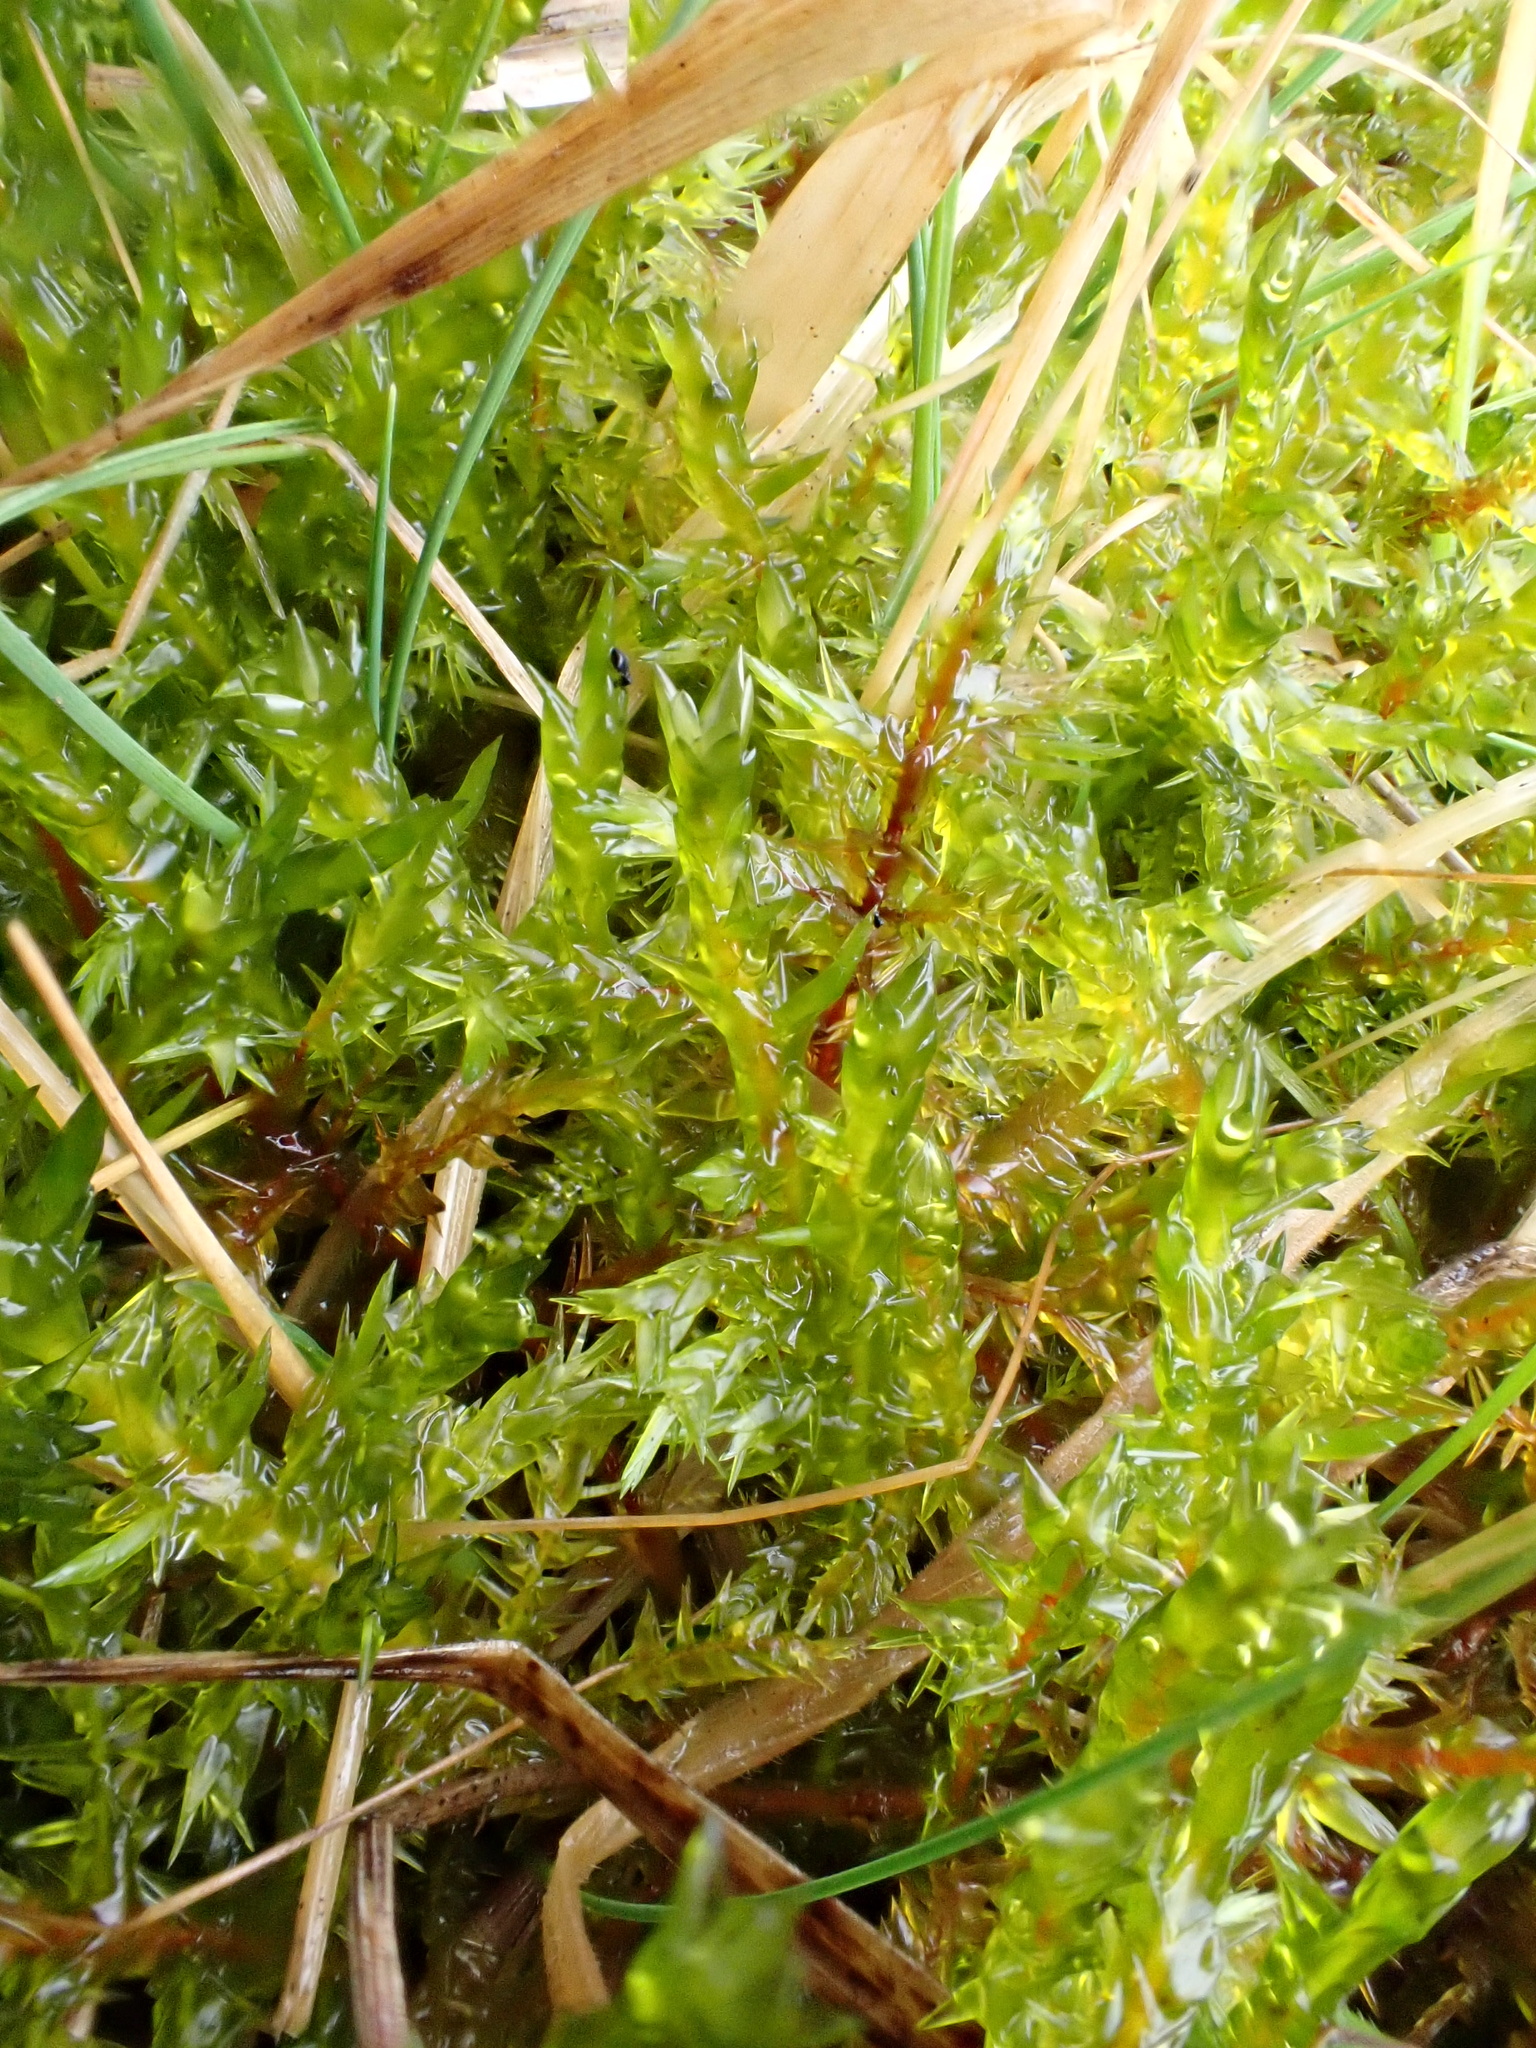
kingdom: Plantae
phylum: Bryophyta
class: Bryopsida
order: Hypnales
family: Pylaisiaceae
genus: Calliergonella
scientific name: Calliergonella cuspidata
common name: Common large wetland moss
